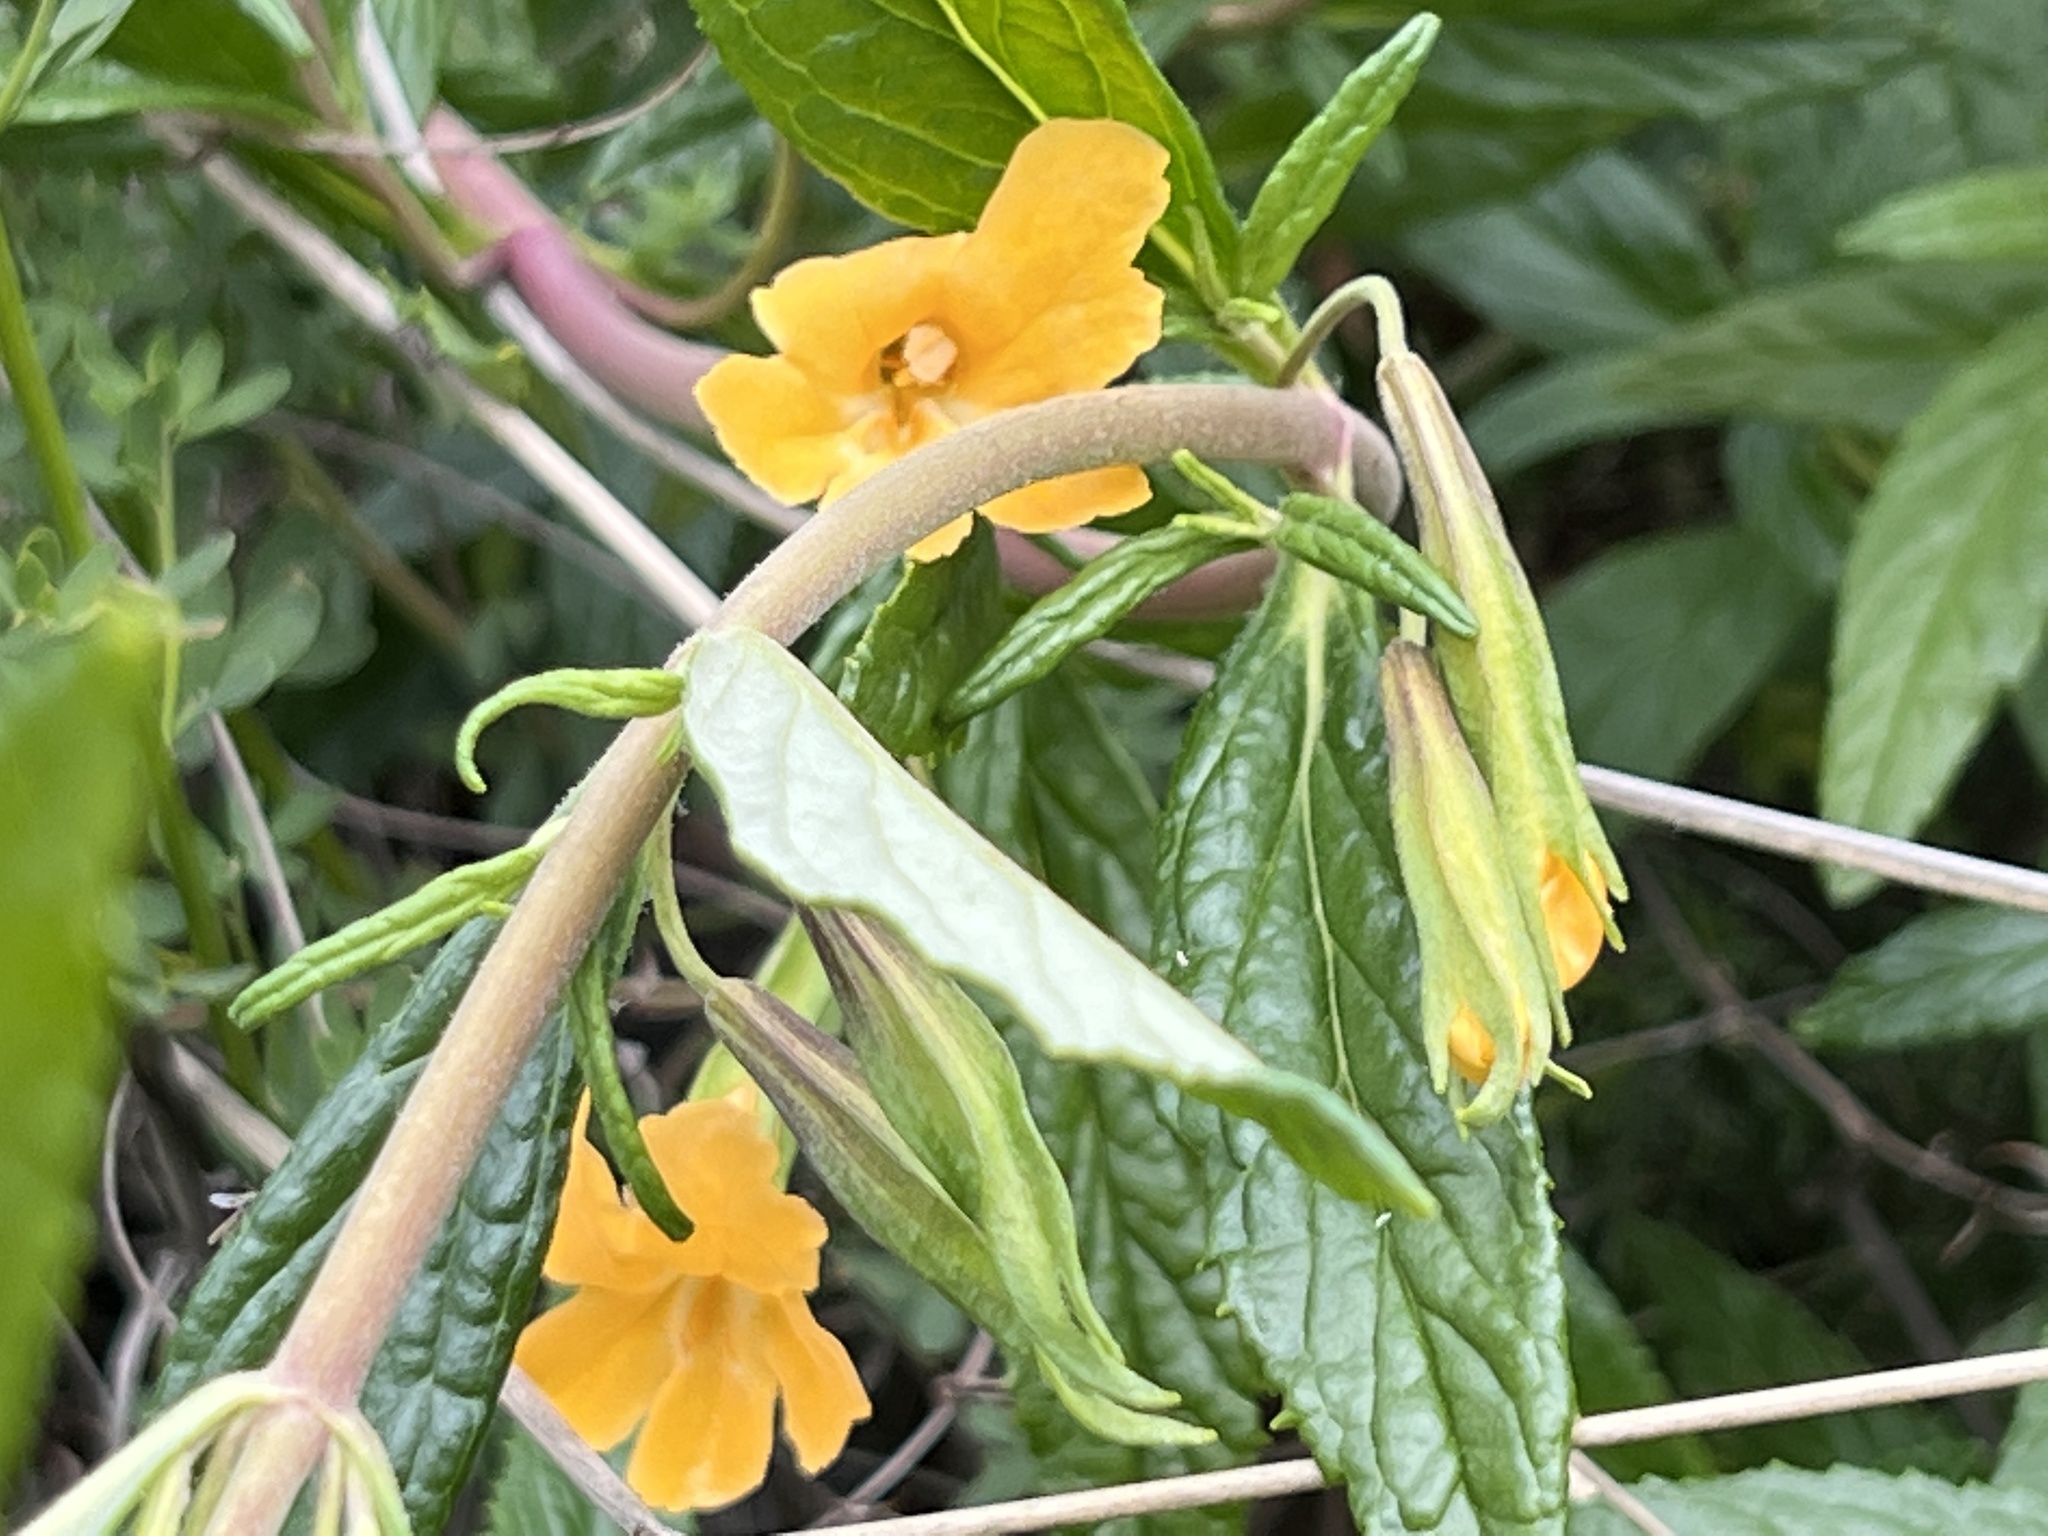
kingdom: Plantae
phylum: Tracheophyta
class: Magnoliopsida
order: Lamiales
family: Phrymaceae
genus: Diplacus
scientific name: Diplacus aurantiacus
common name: Bush monkey-flower
